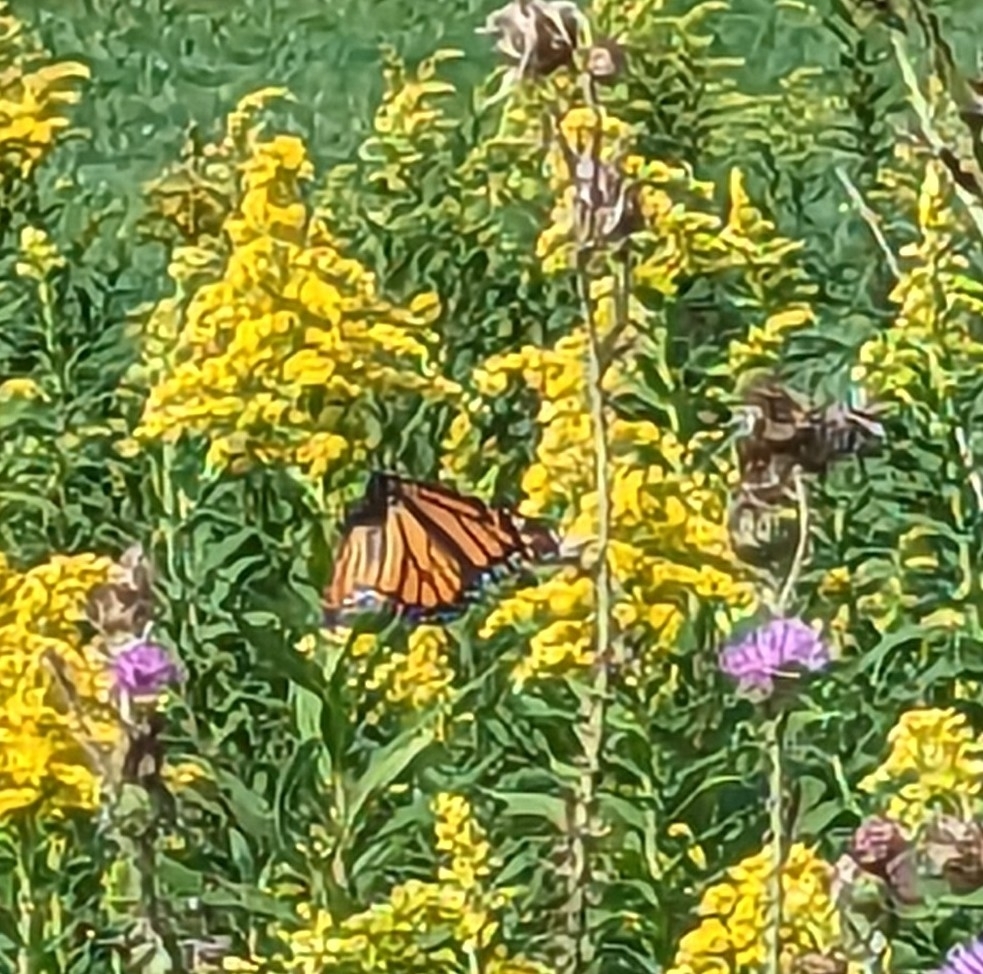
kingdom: Animalia
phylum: Arthropoda
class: Insecta
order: Lepidoptera
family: Nymphalidae
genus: Danaus
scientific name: Danaus plexippus
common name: Monarch
